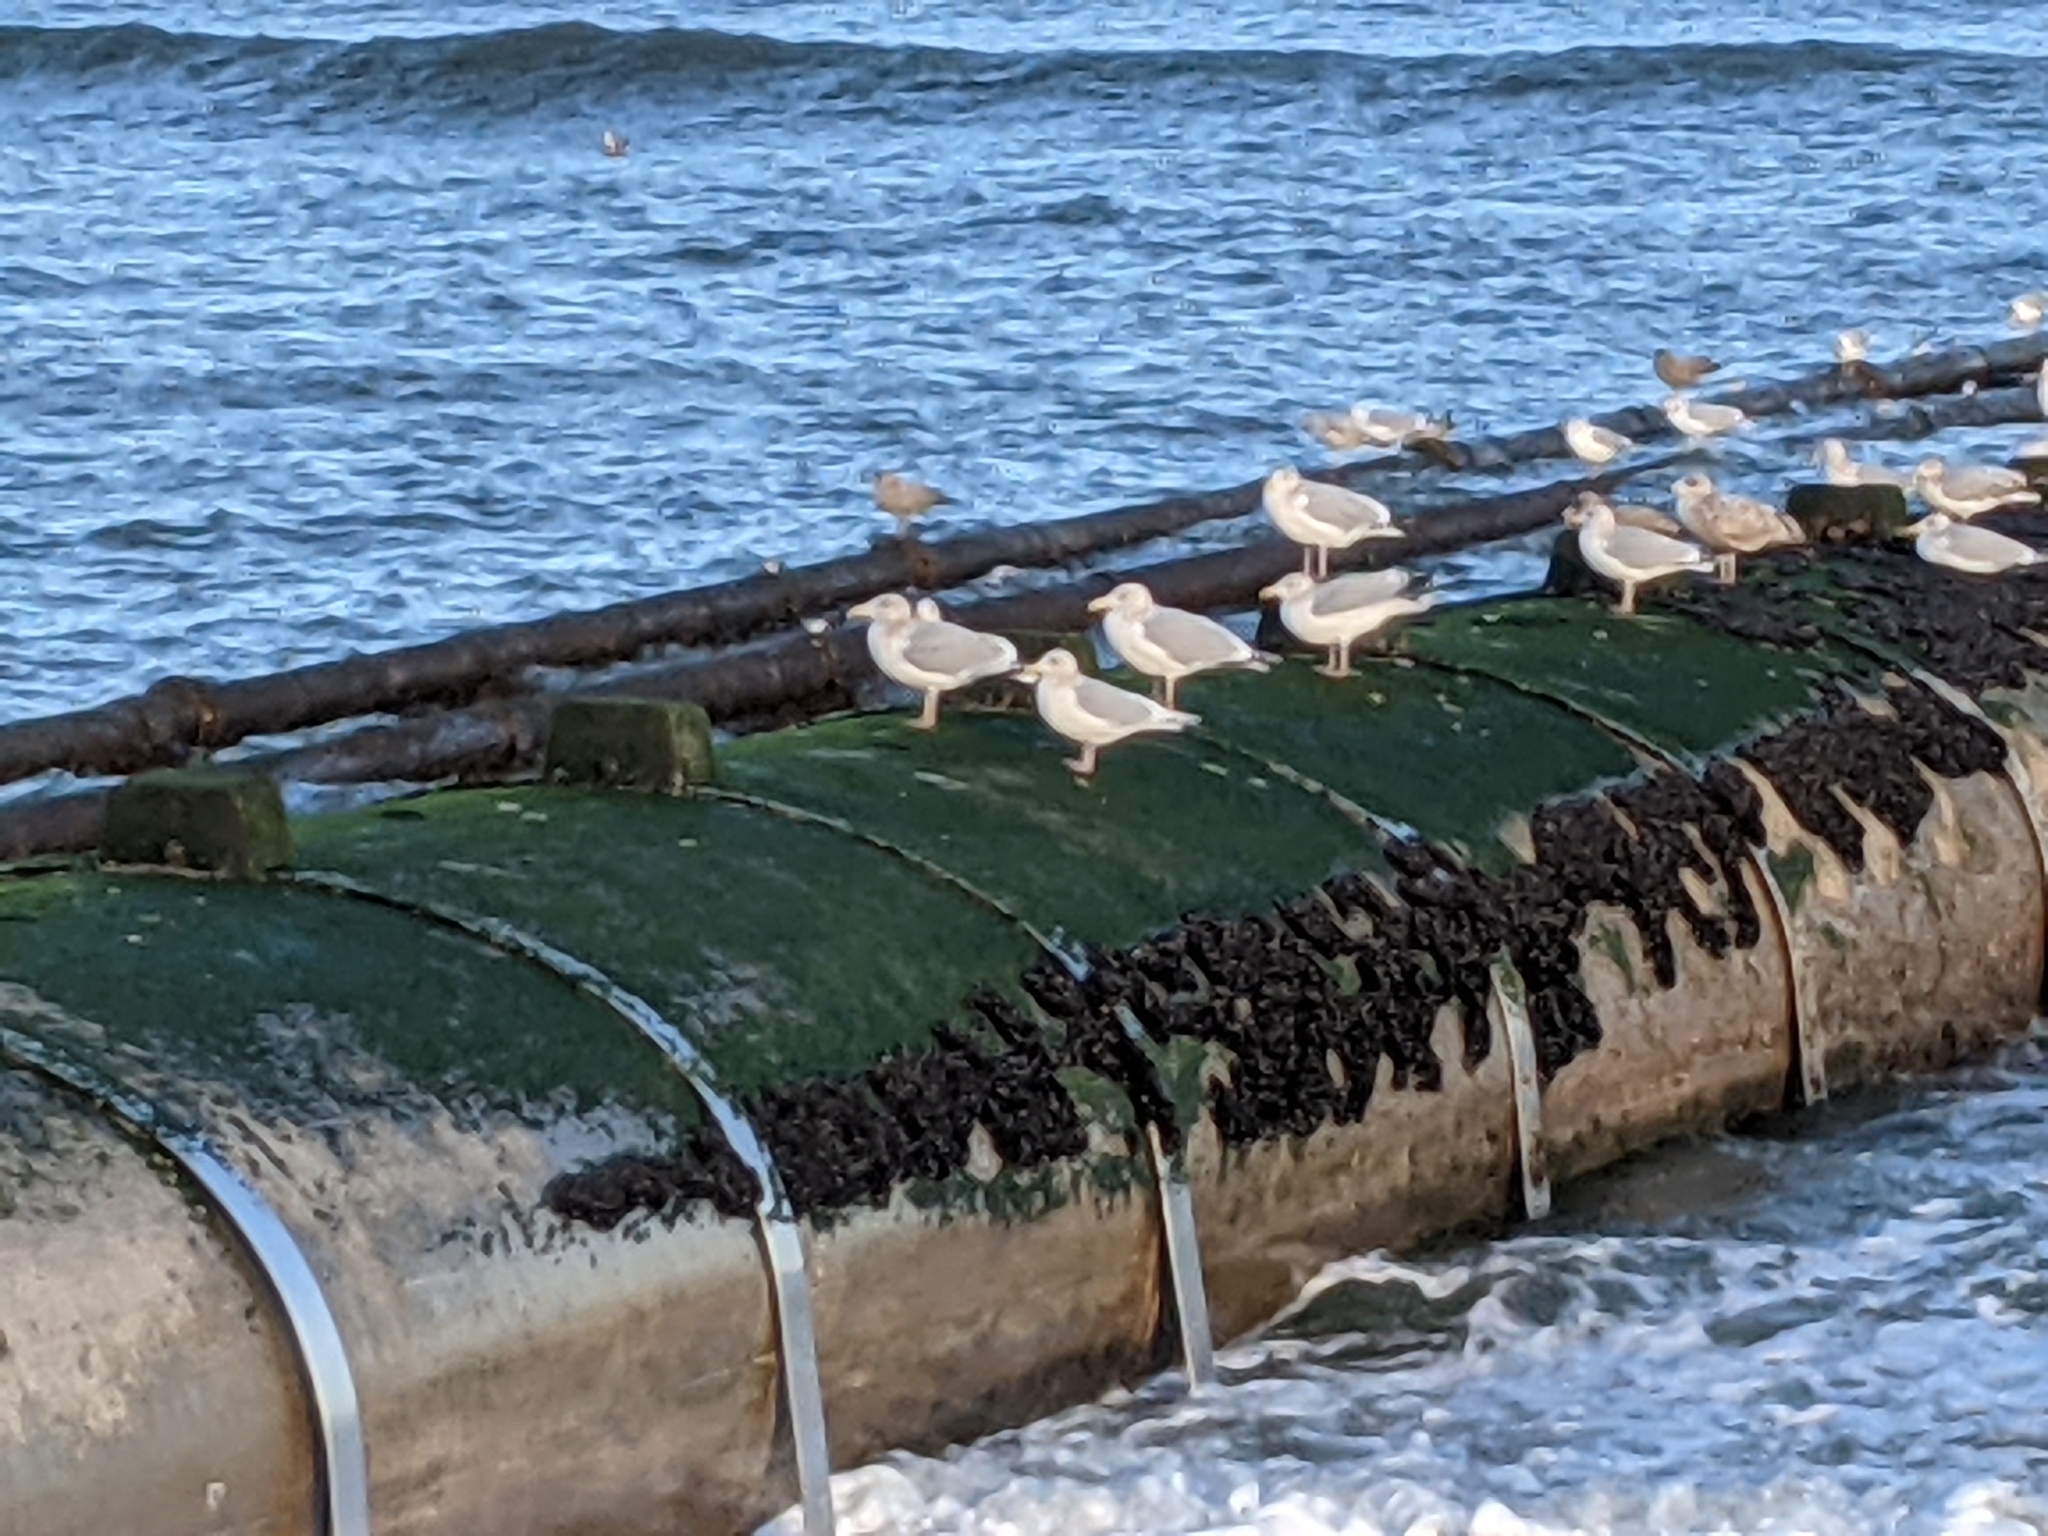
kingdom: Animalia
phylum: Chordata
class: Aves
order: Charadriiformes
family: Laridae
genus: Larus
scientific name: Larus glaucoides
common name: Iceland gull
